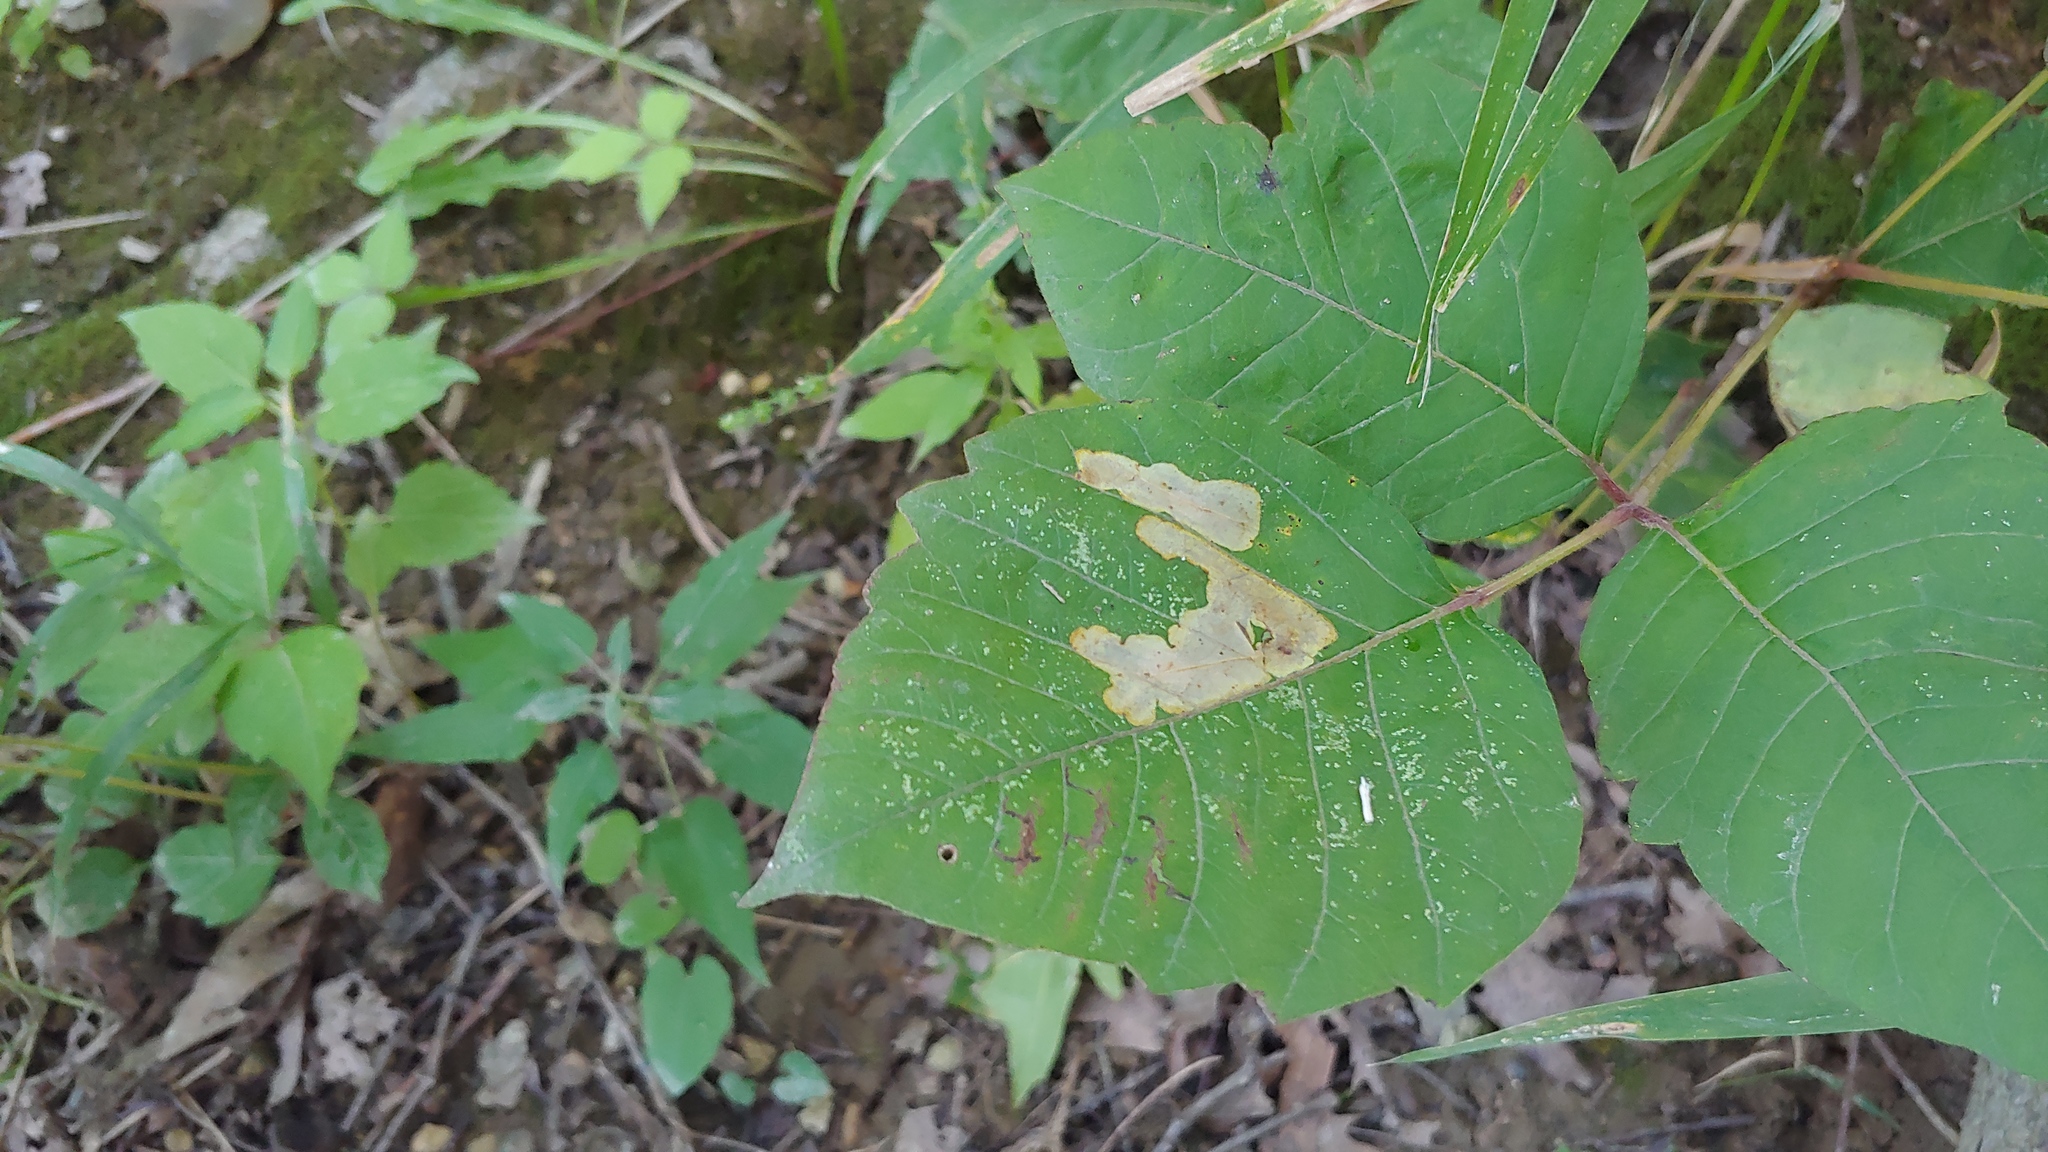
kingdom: Animalia
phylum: Arthropoda
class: Insecta
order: Lepidoptera
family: Gracillariidae
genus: Cameraria
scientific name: Cameraria guttifinitella
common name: Poison ivy leaf-miner moth
